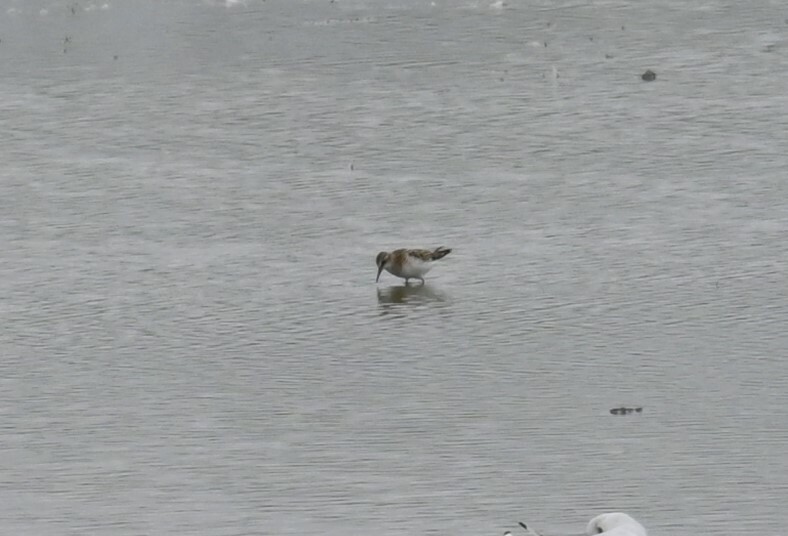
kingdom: Animalia
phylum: Chordata
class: Aves
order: Charadriiformes
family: Scolopacidae
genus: Calidris
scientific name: Calidris minuta
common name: Little stint
